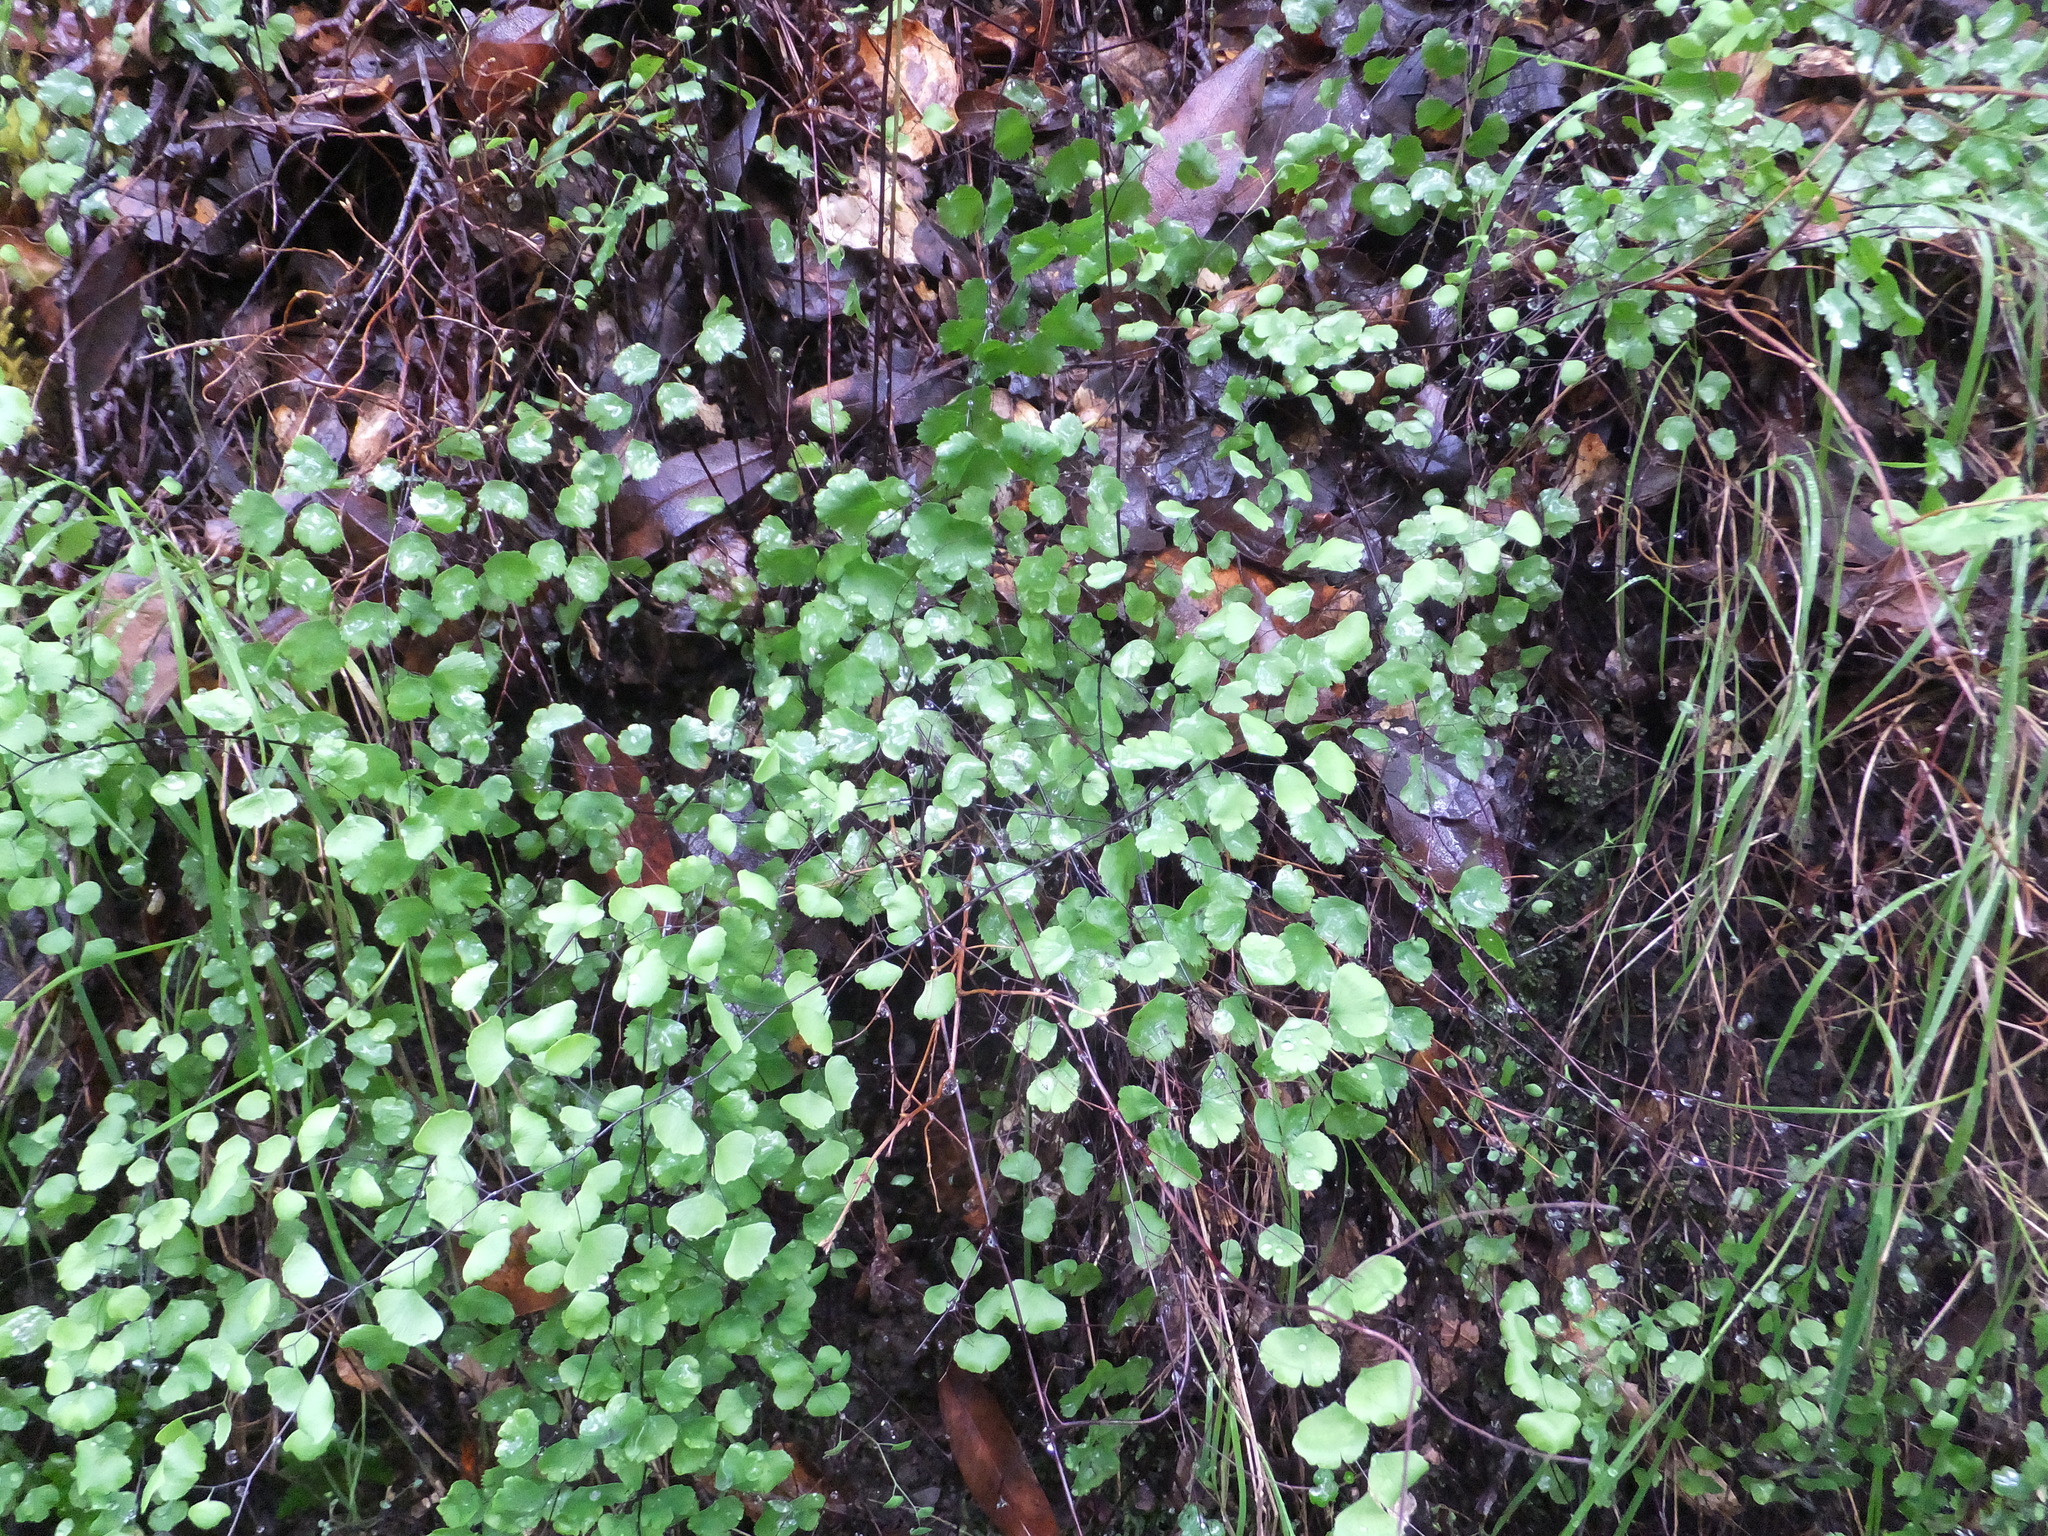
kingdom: Plantae
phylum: Tracheophyta
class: Polypodiopsida
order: Polypodiales
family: Pteridaceae
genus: Adiantum
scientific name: Adiantum jordanii
